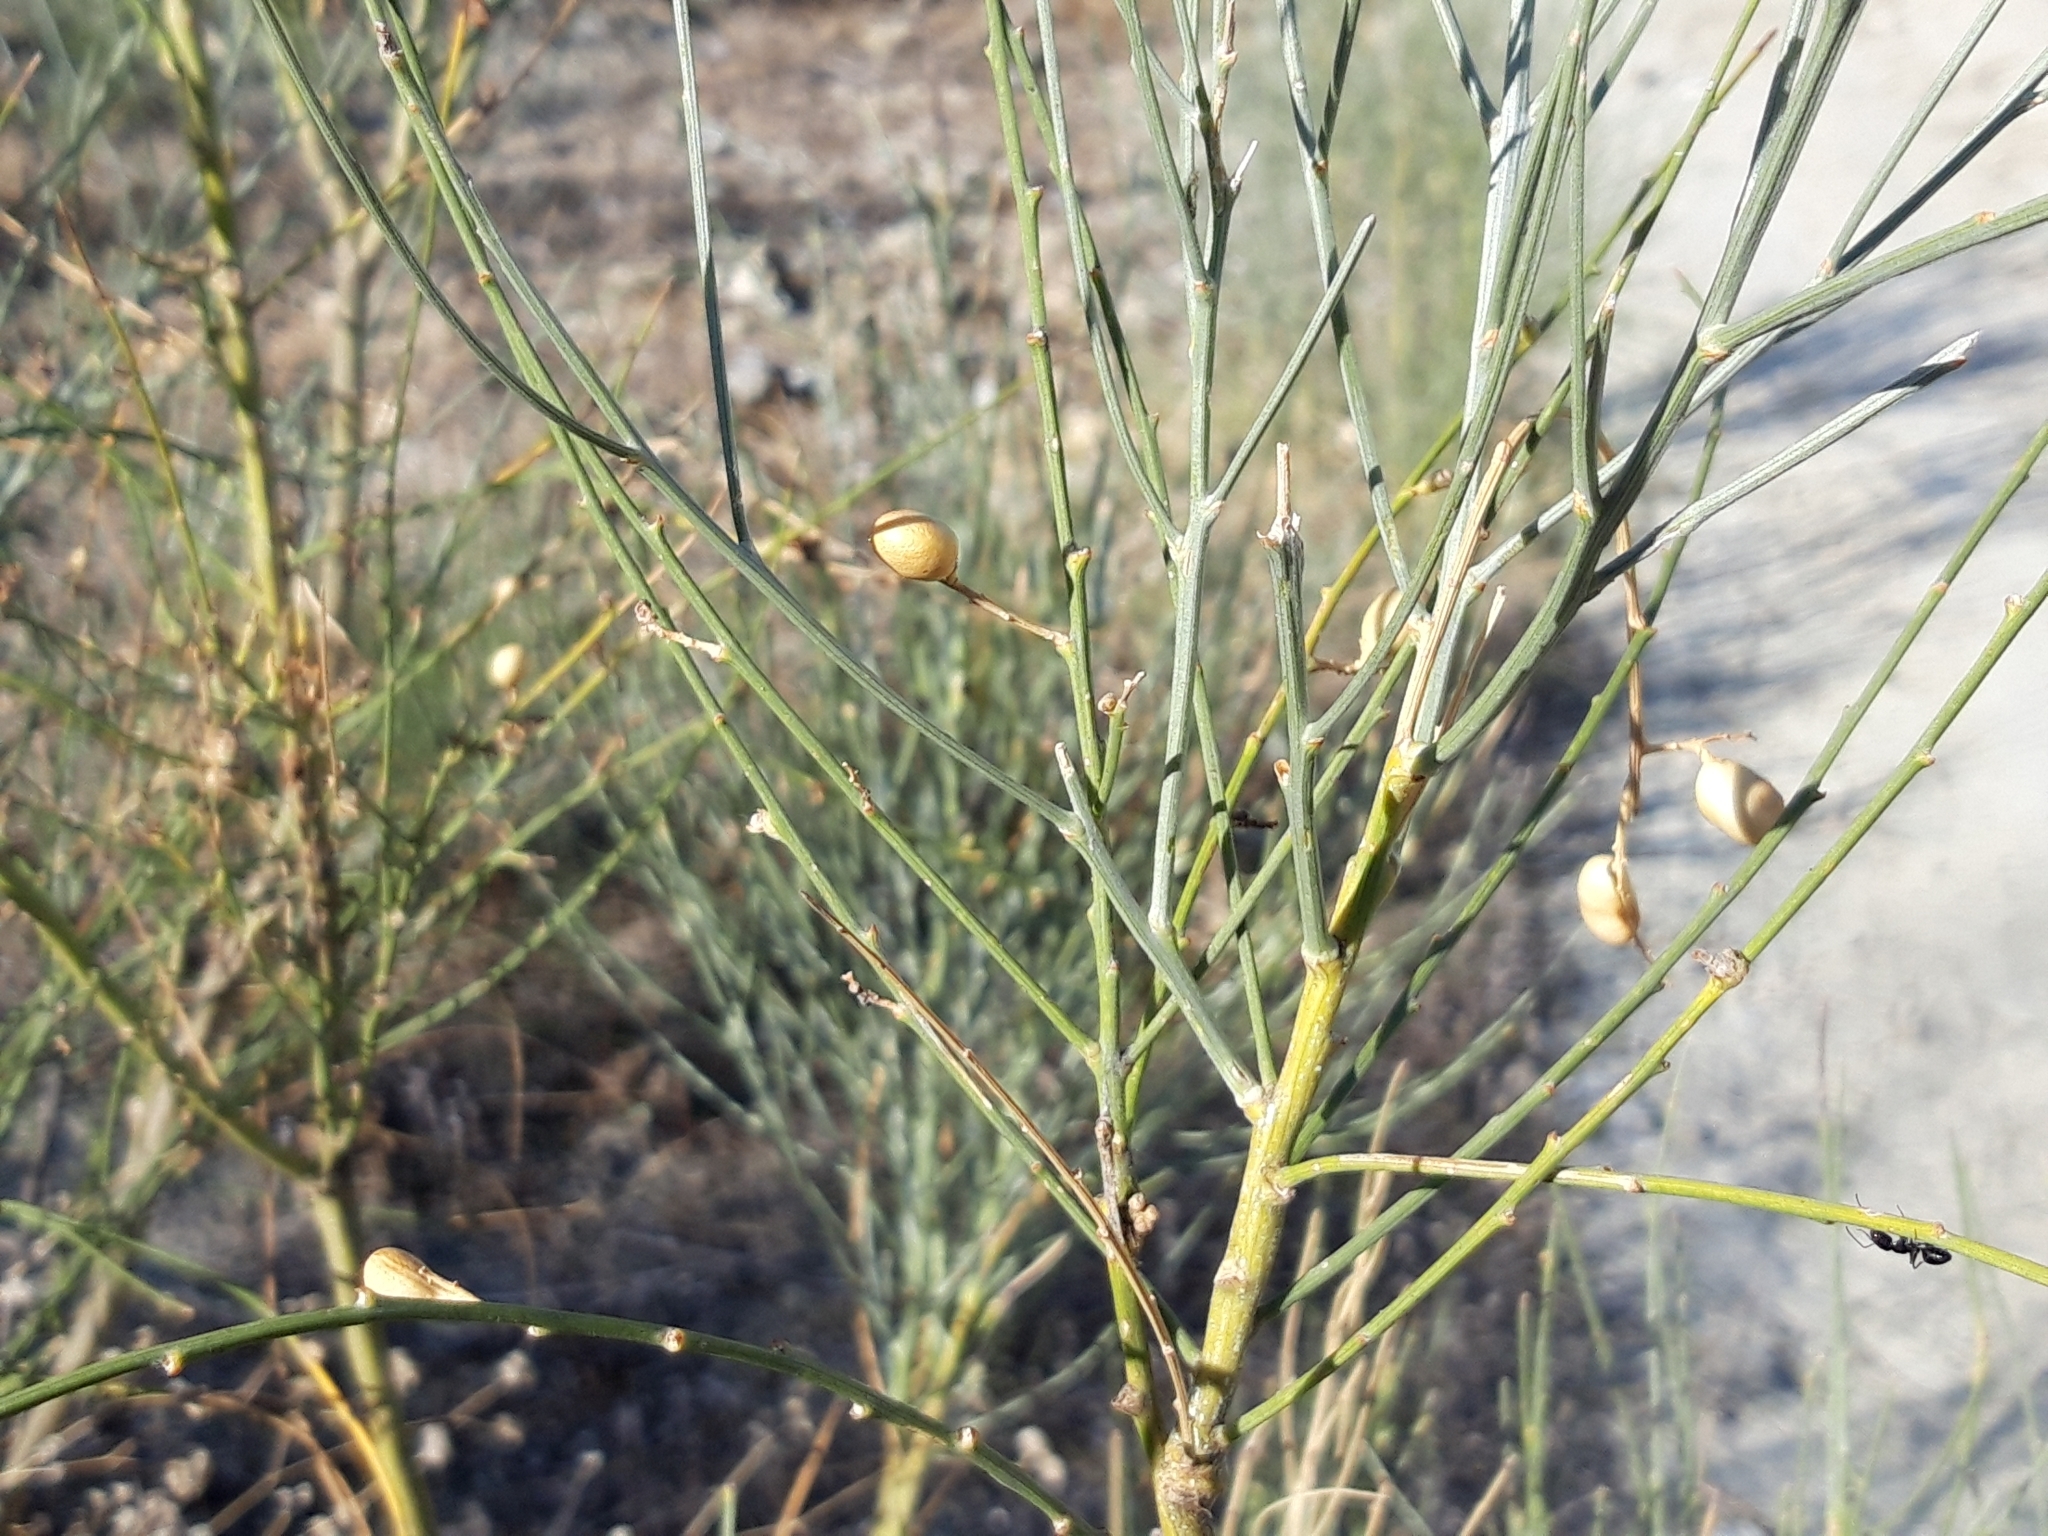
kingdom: Plantae
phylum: Tracheophyta
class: Magnoliopsida
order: Fabales
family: Fabaceae
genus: Retama
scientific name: Retama sphaerocarpa
